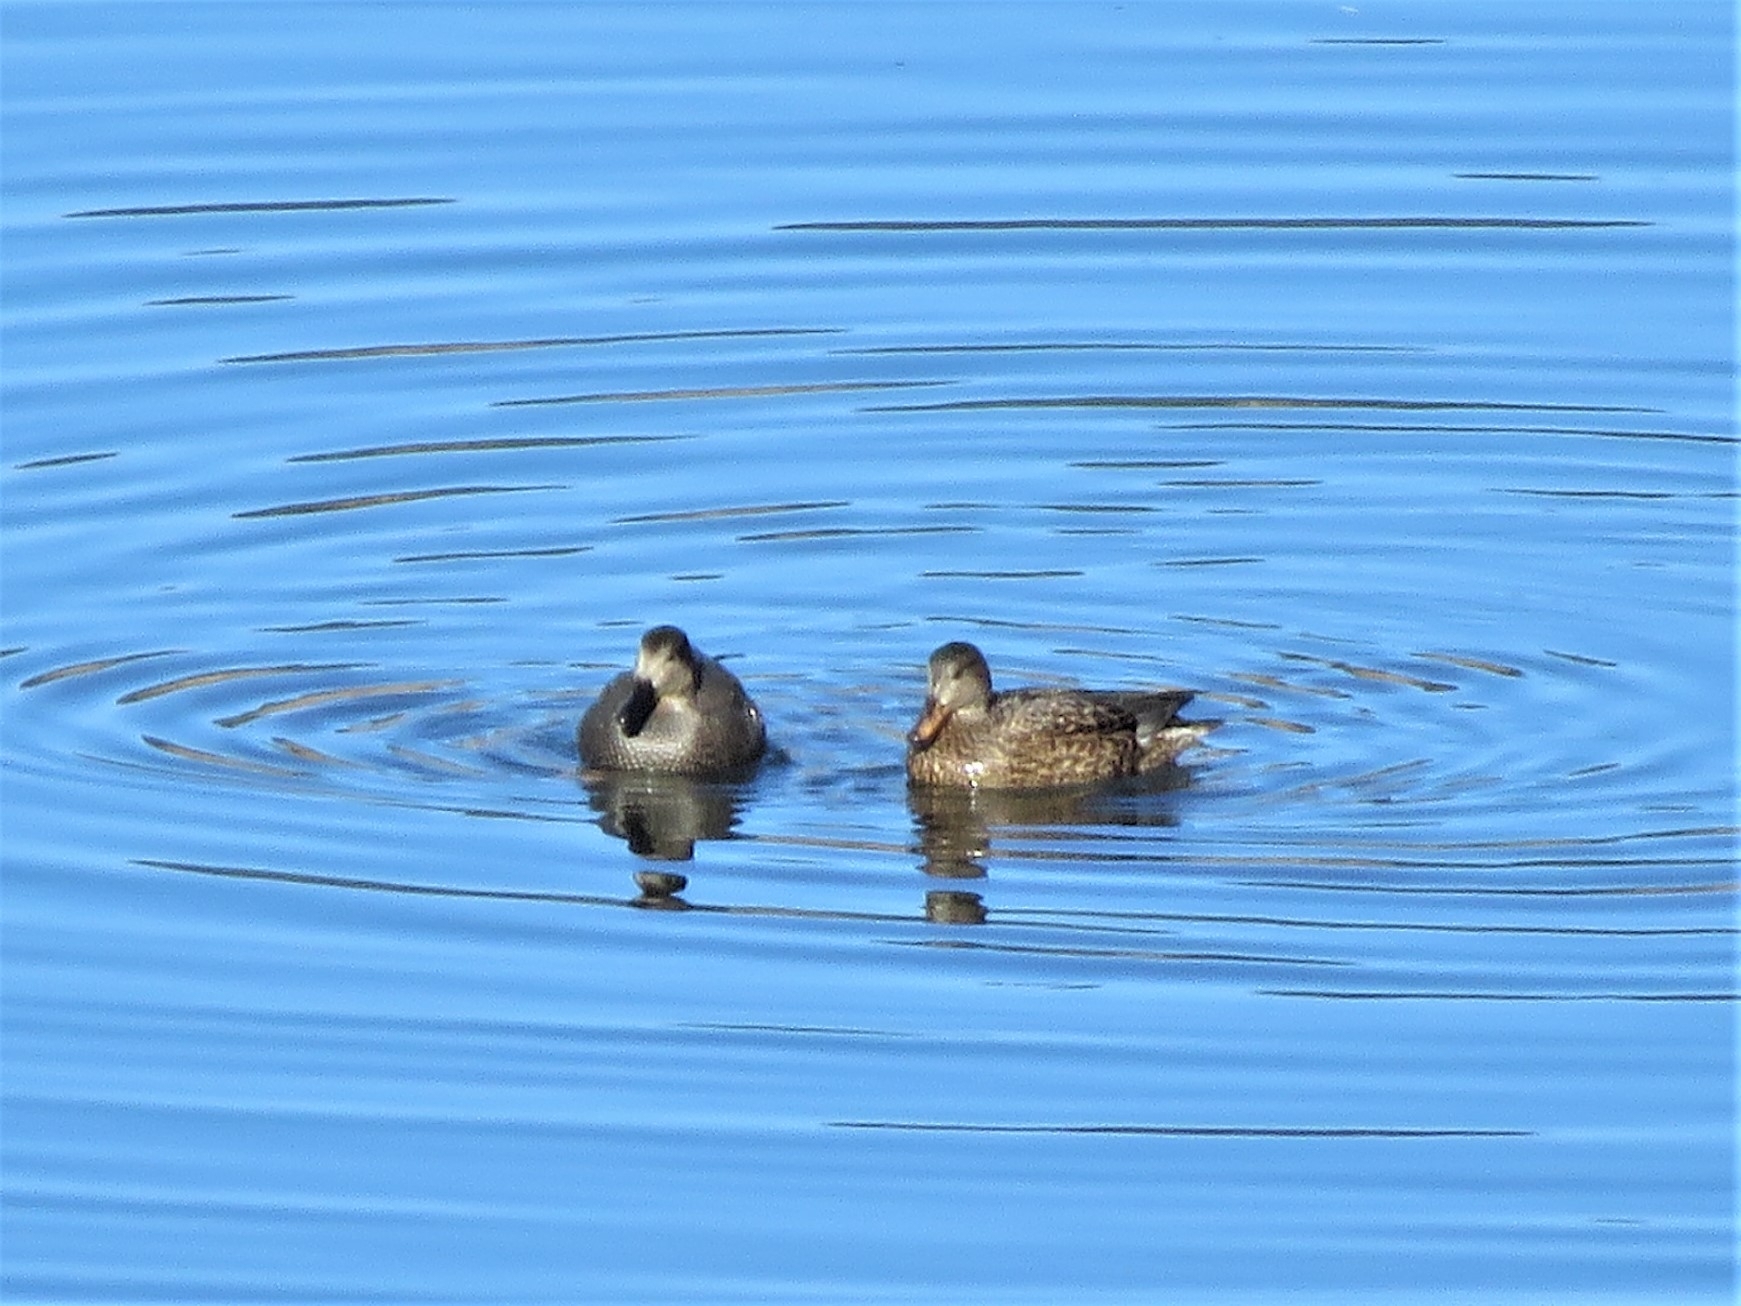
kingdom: Animalia
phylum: Chordata
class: Aves
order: Anseriformes
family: Anatidae
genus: Mareca
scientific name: Mareca strepera
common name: Gadwall
